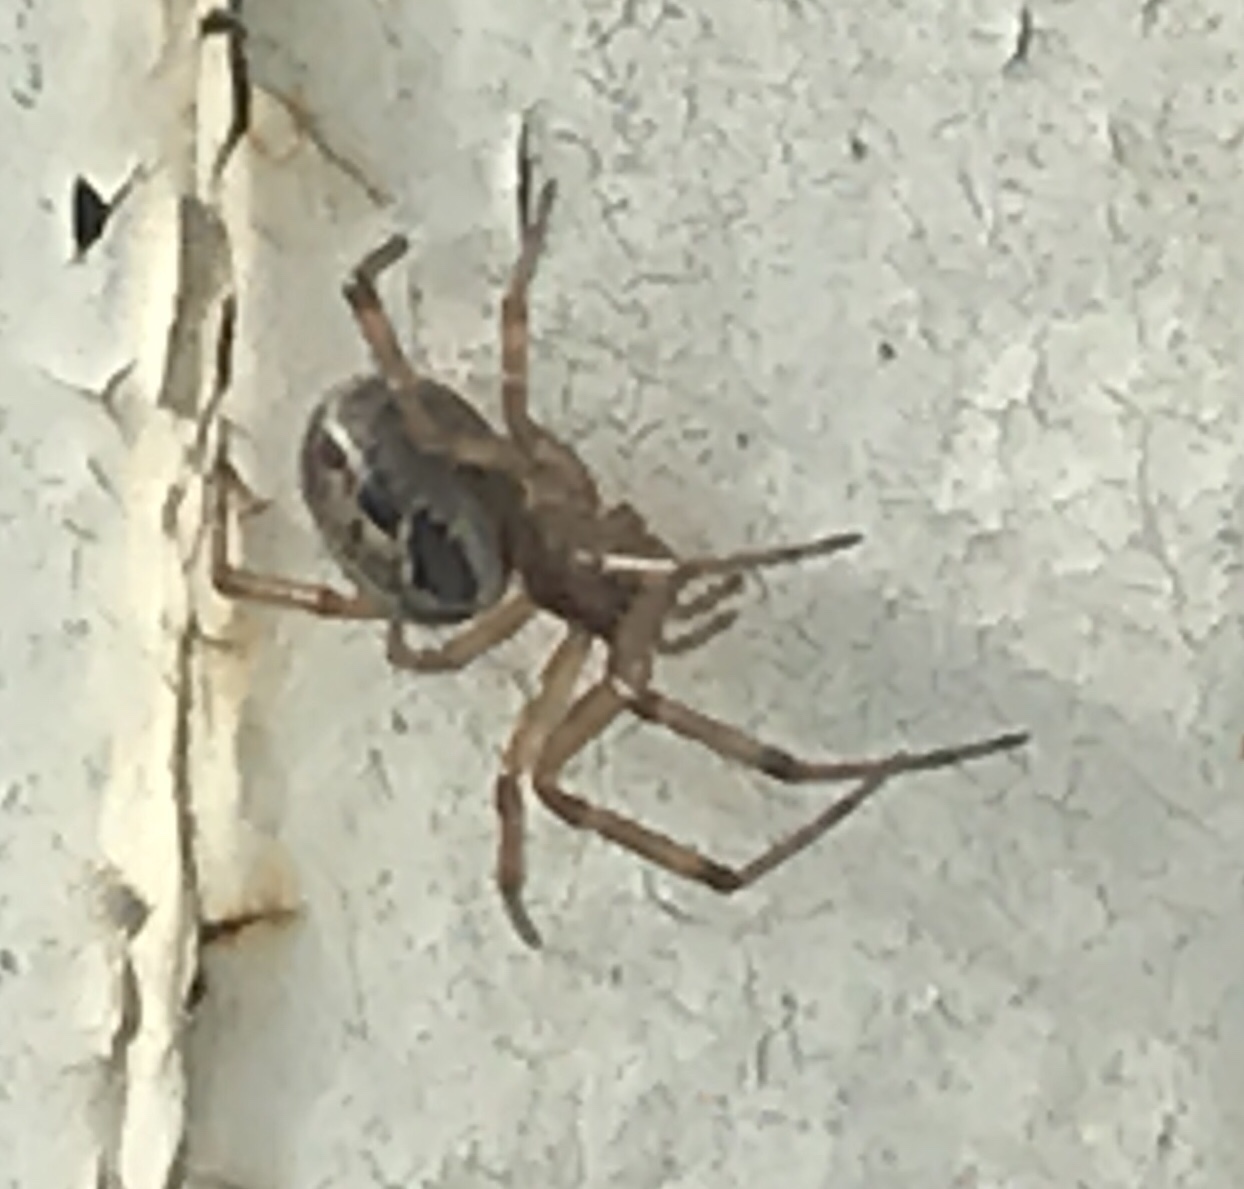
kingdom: Animalia
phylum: Arthropoda
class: Arachnida
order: Araneae
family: Theridiidae
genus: Steatoda
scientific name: Steatoda nobilis
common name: Cobweb weaver
